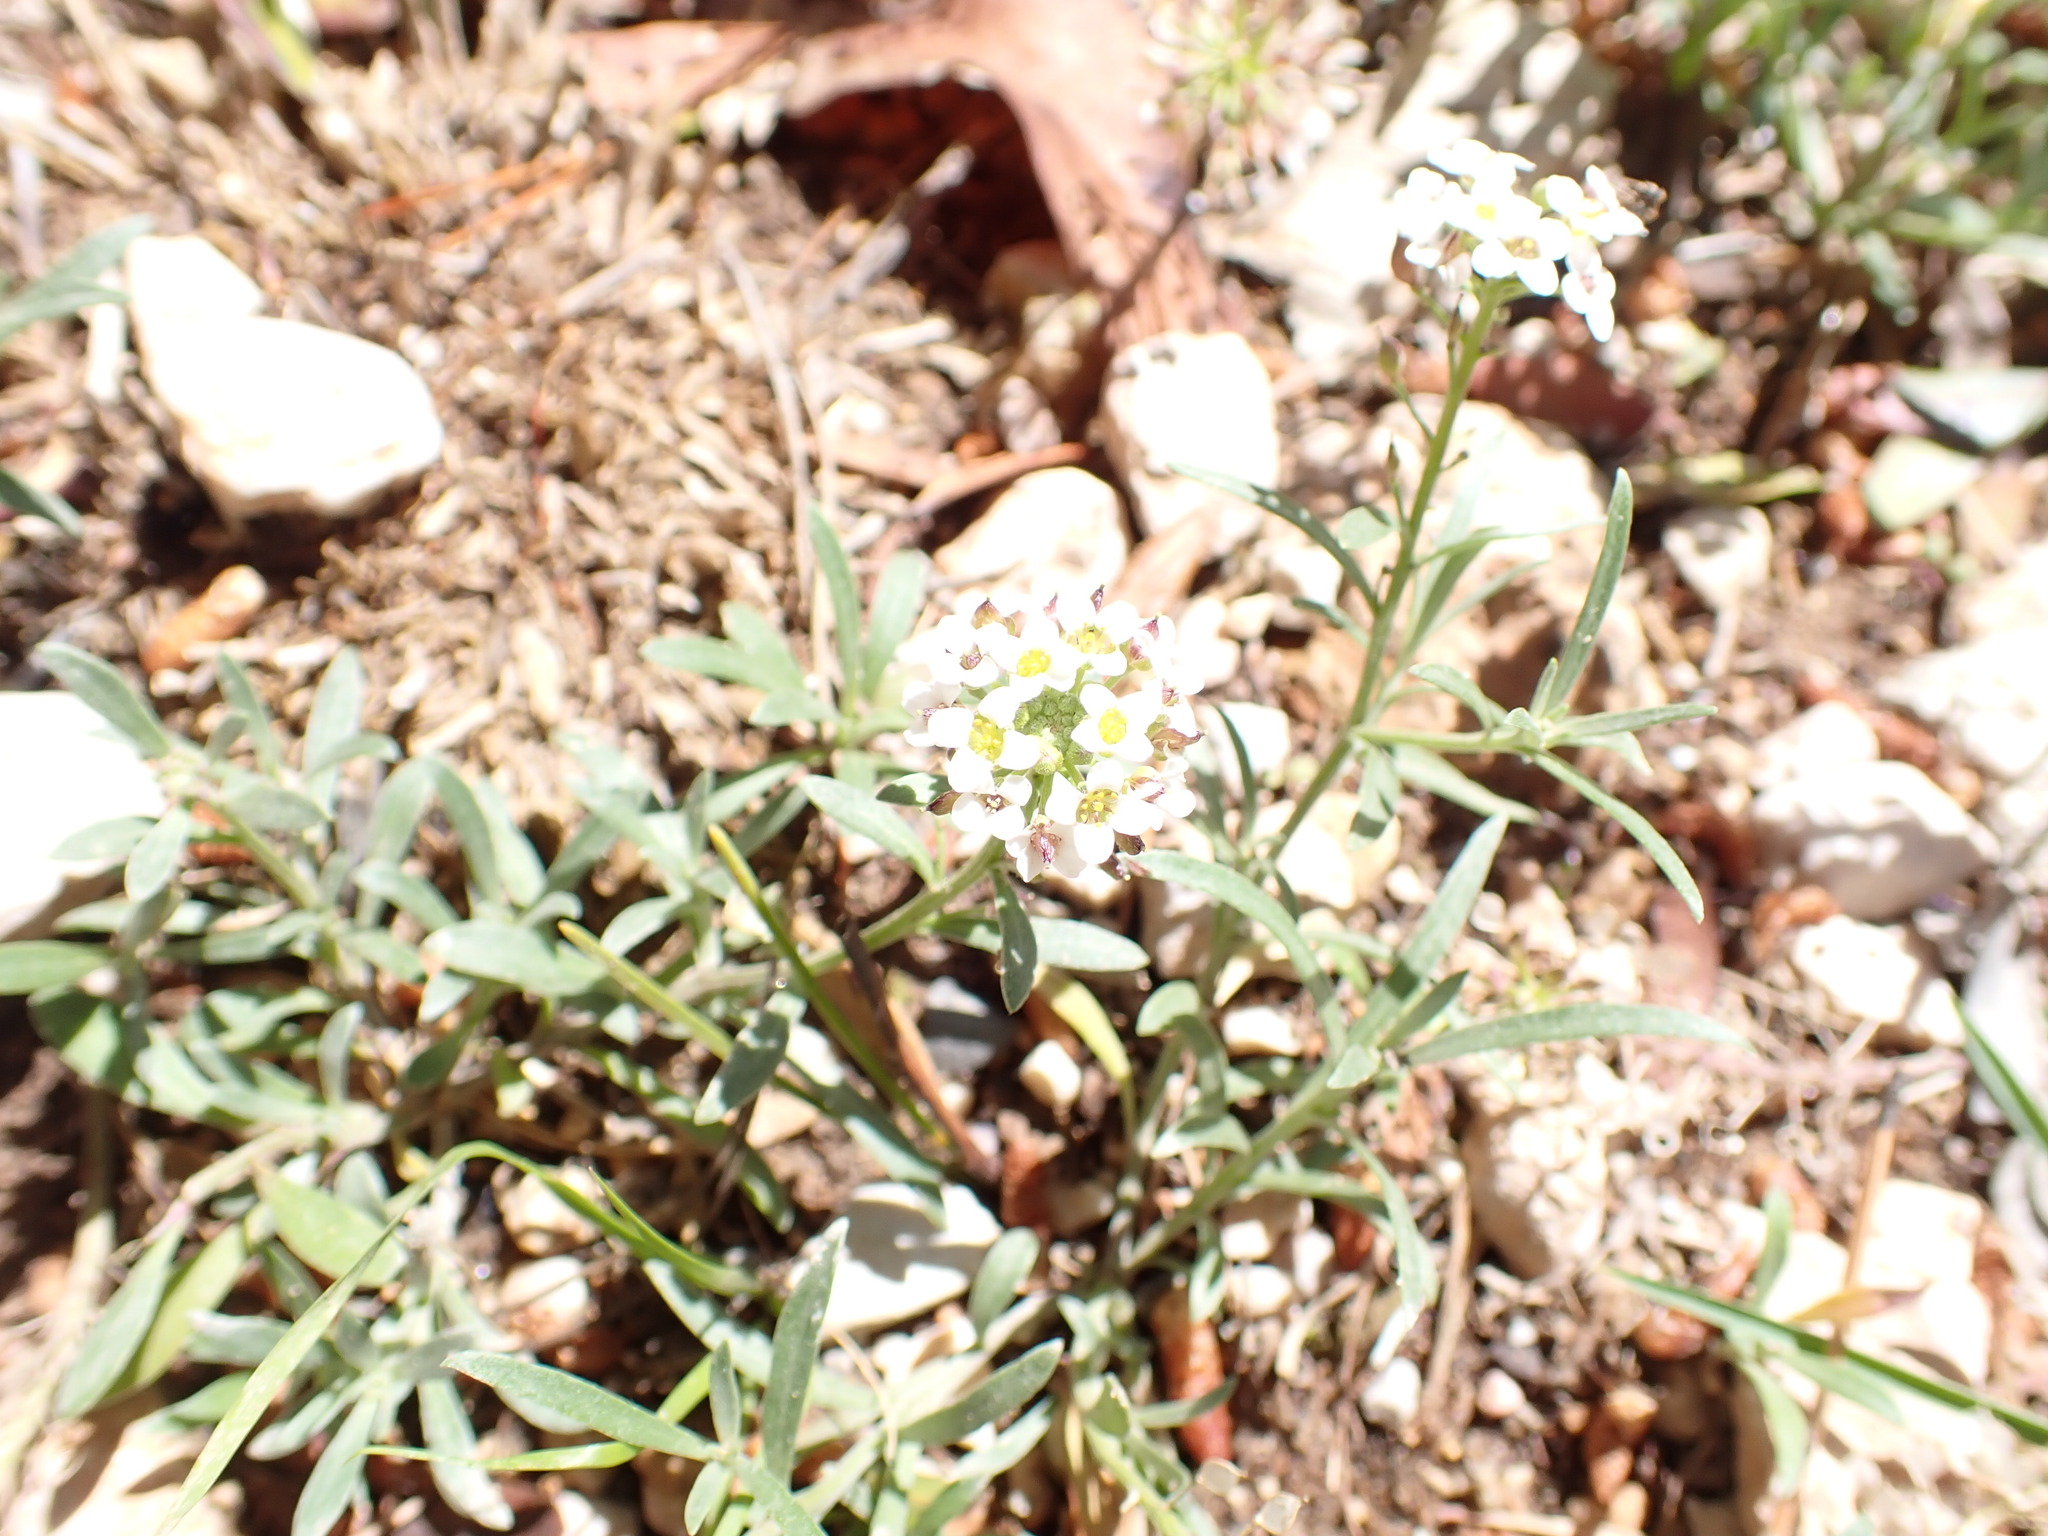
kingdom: Plantae
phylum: Tracheophyta
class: Magnoliopsida
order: Brassicales
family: Brassicaceae
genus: Lobularia
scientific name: Lobularia maritima
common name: Sweet alison
